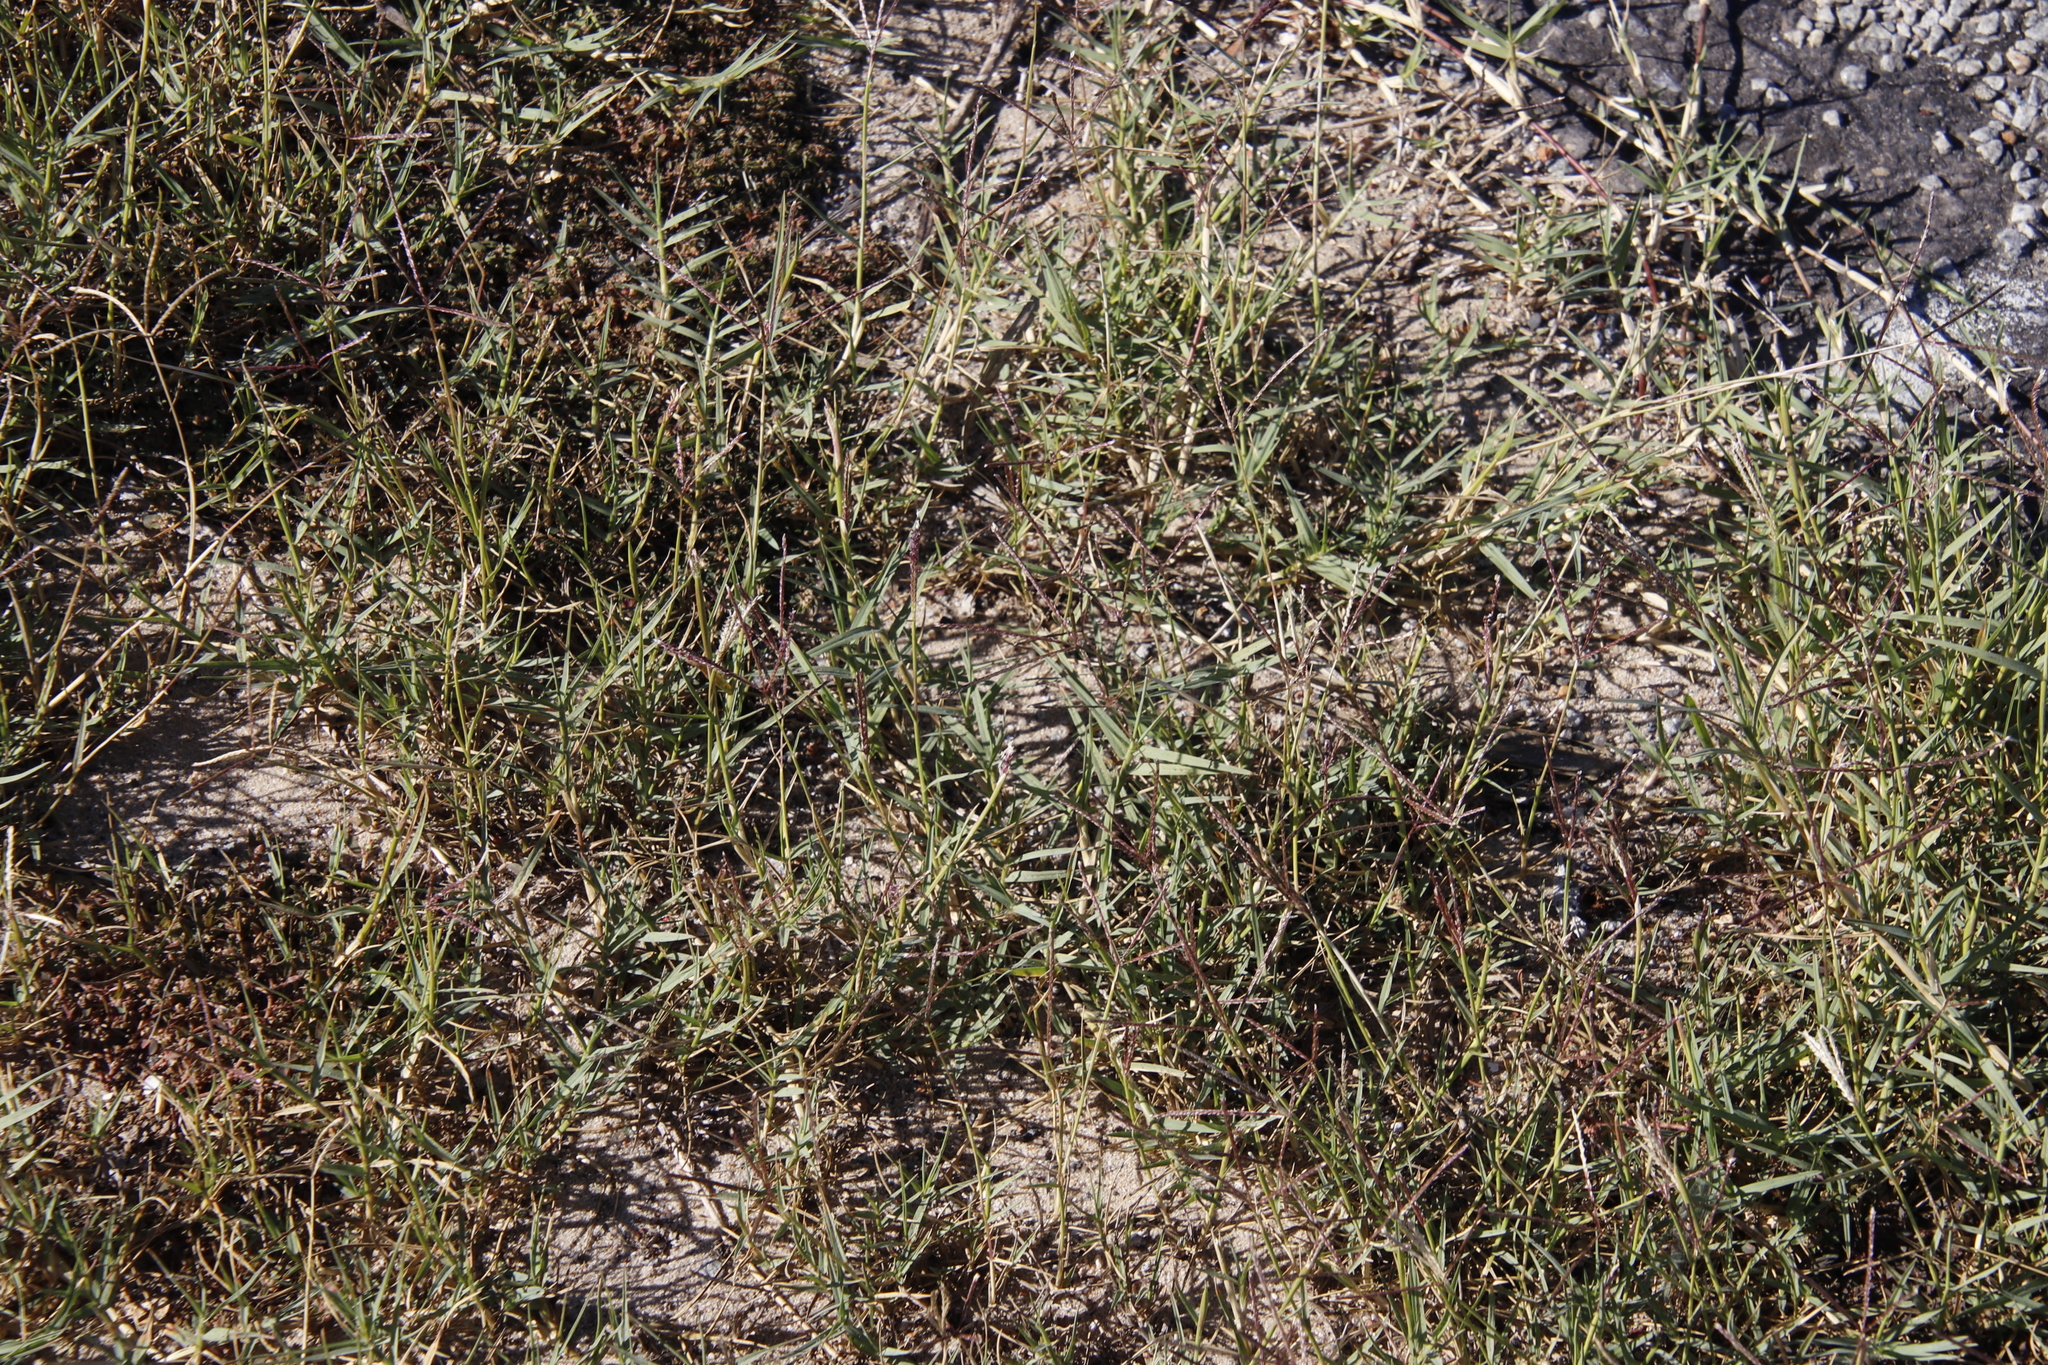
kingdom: Plantae
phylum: Tracheophyta
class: Liliopsida
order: Poales
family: Poaceae
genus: Cynodon
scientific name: Cynodon dactylon
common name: Bermuda grass
